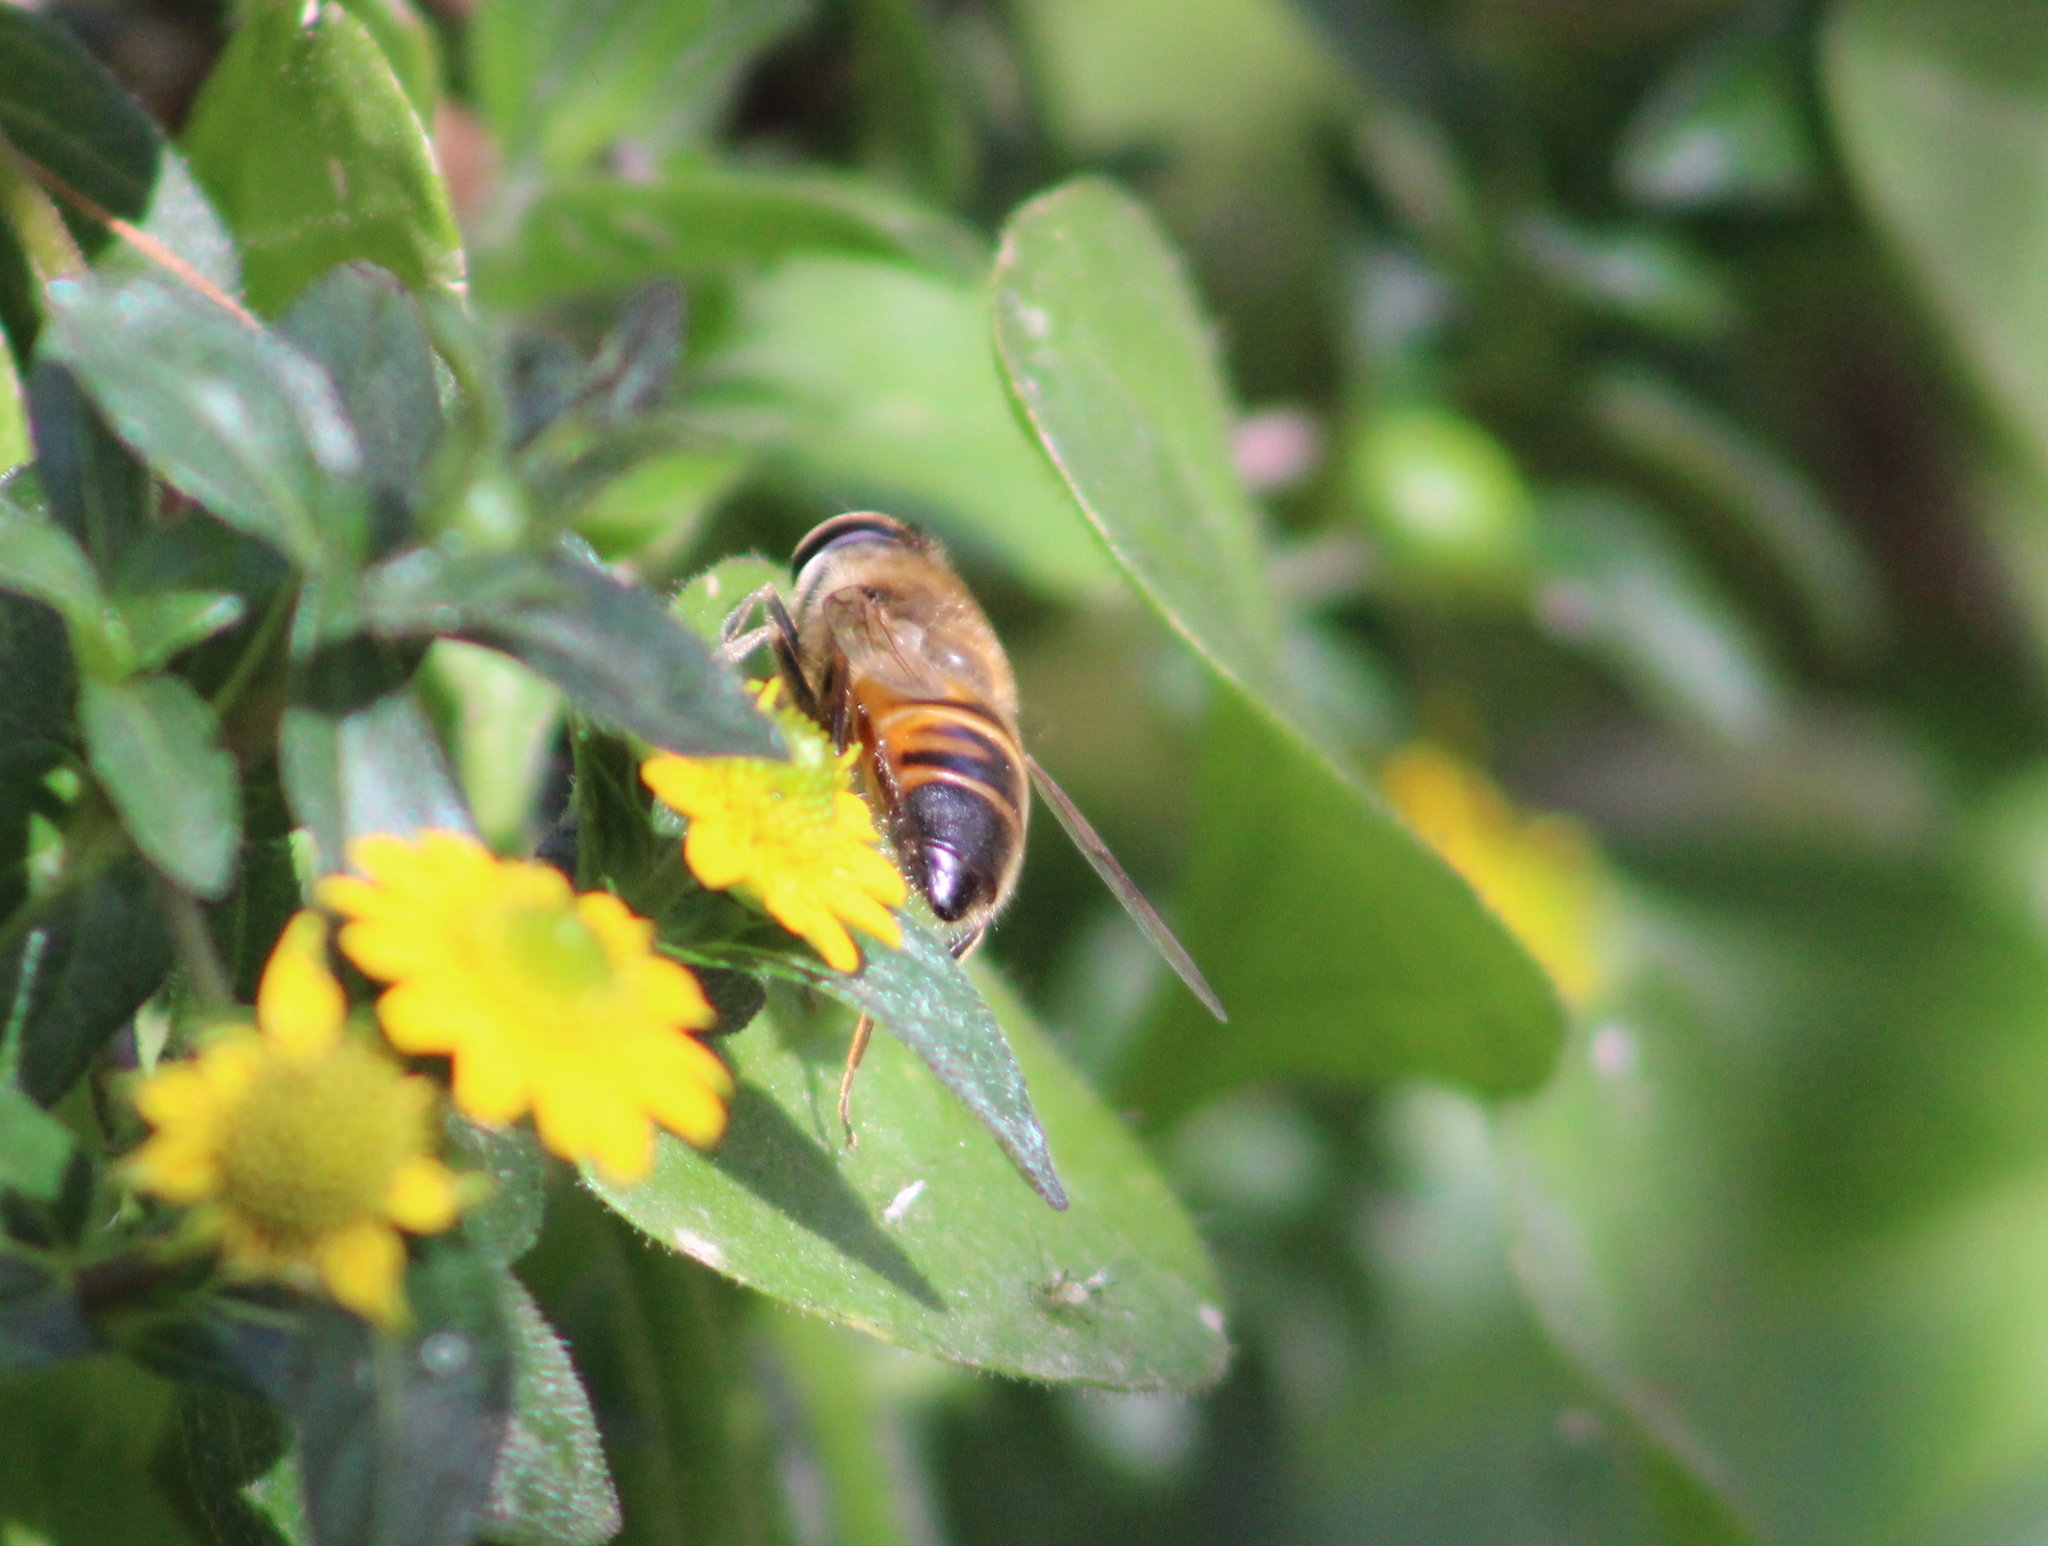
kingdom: Animalia
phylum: Arthropoda
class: Insecta
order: Diptera
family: Syrphidae
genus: Eristalis
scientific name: Eristalis tenax
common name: Drone fly
